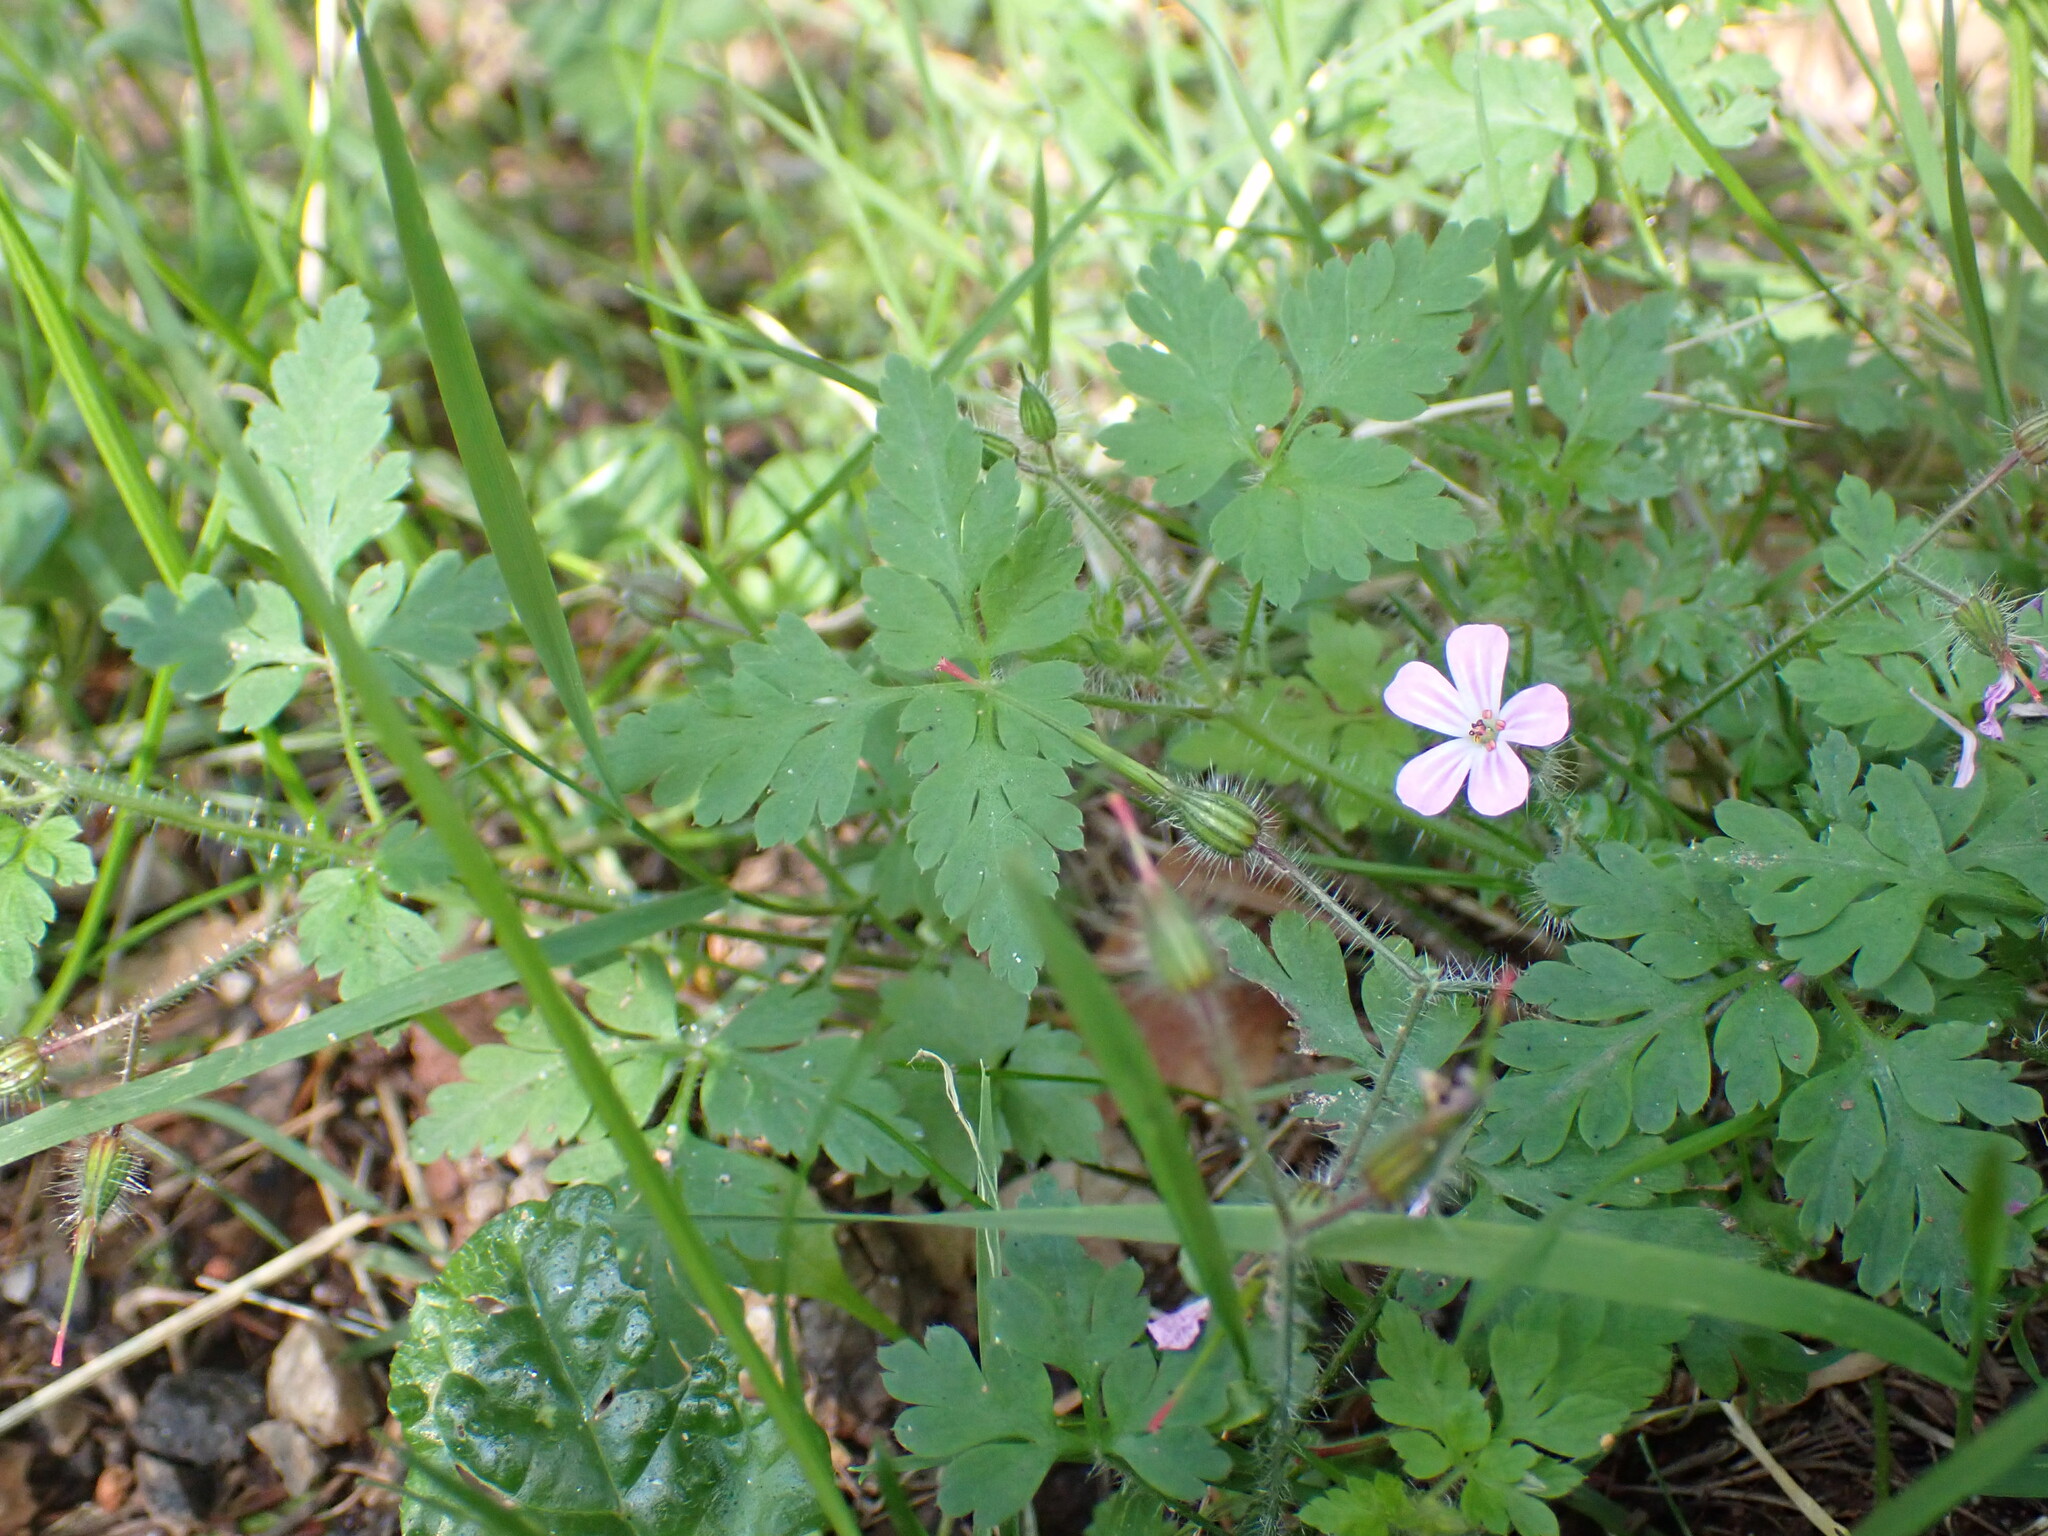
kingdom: Plantae
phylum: Tracheophyta
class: Magnoliopsida
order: Geraniales
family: Geraniaceae
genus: Geranium
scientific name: Geranium robertianum
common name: Herb-robert
